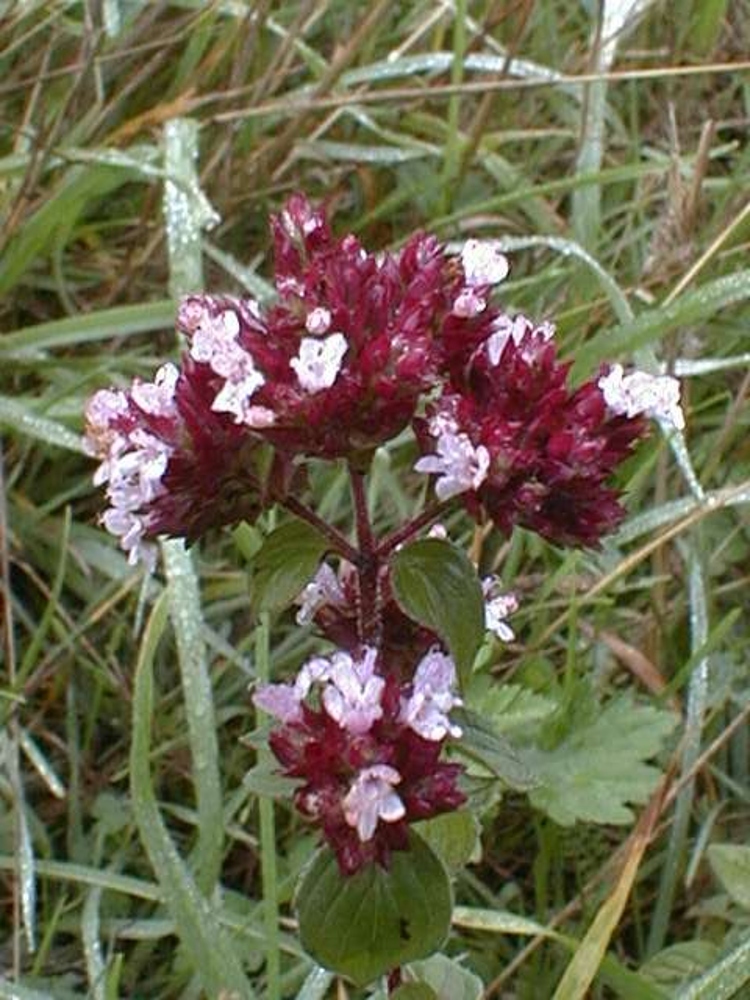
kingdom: Plantae
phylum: Tracheophyta
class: Magnoliopsida
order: Lamiales
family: Lamiaceae
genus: Origanum
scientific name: Origanum vulgare
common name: Wild marjoram
